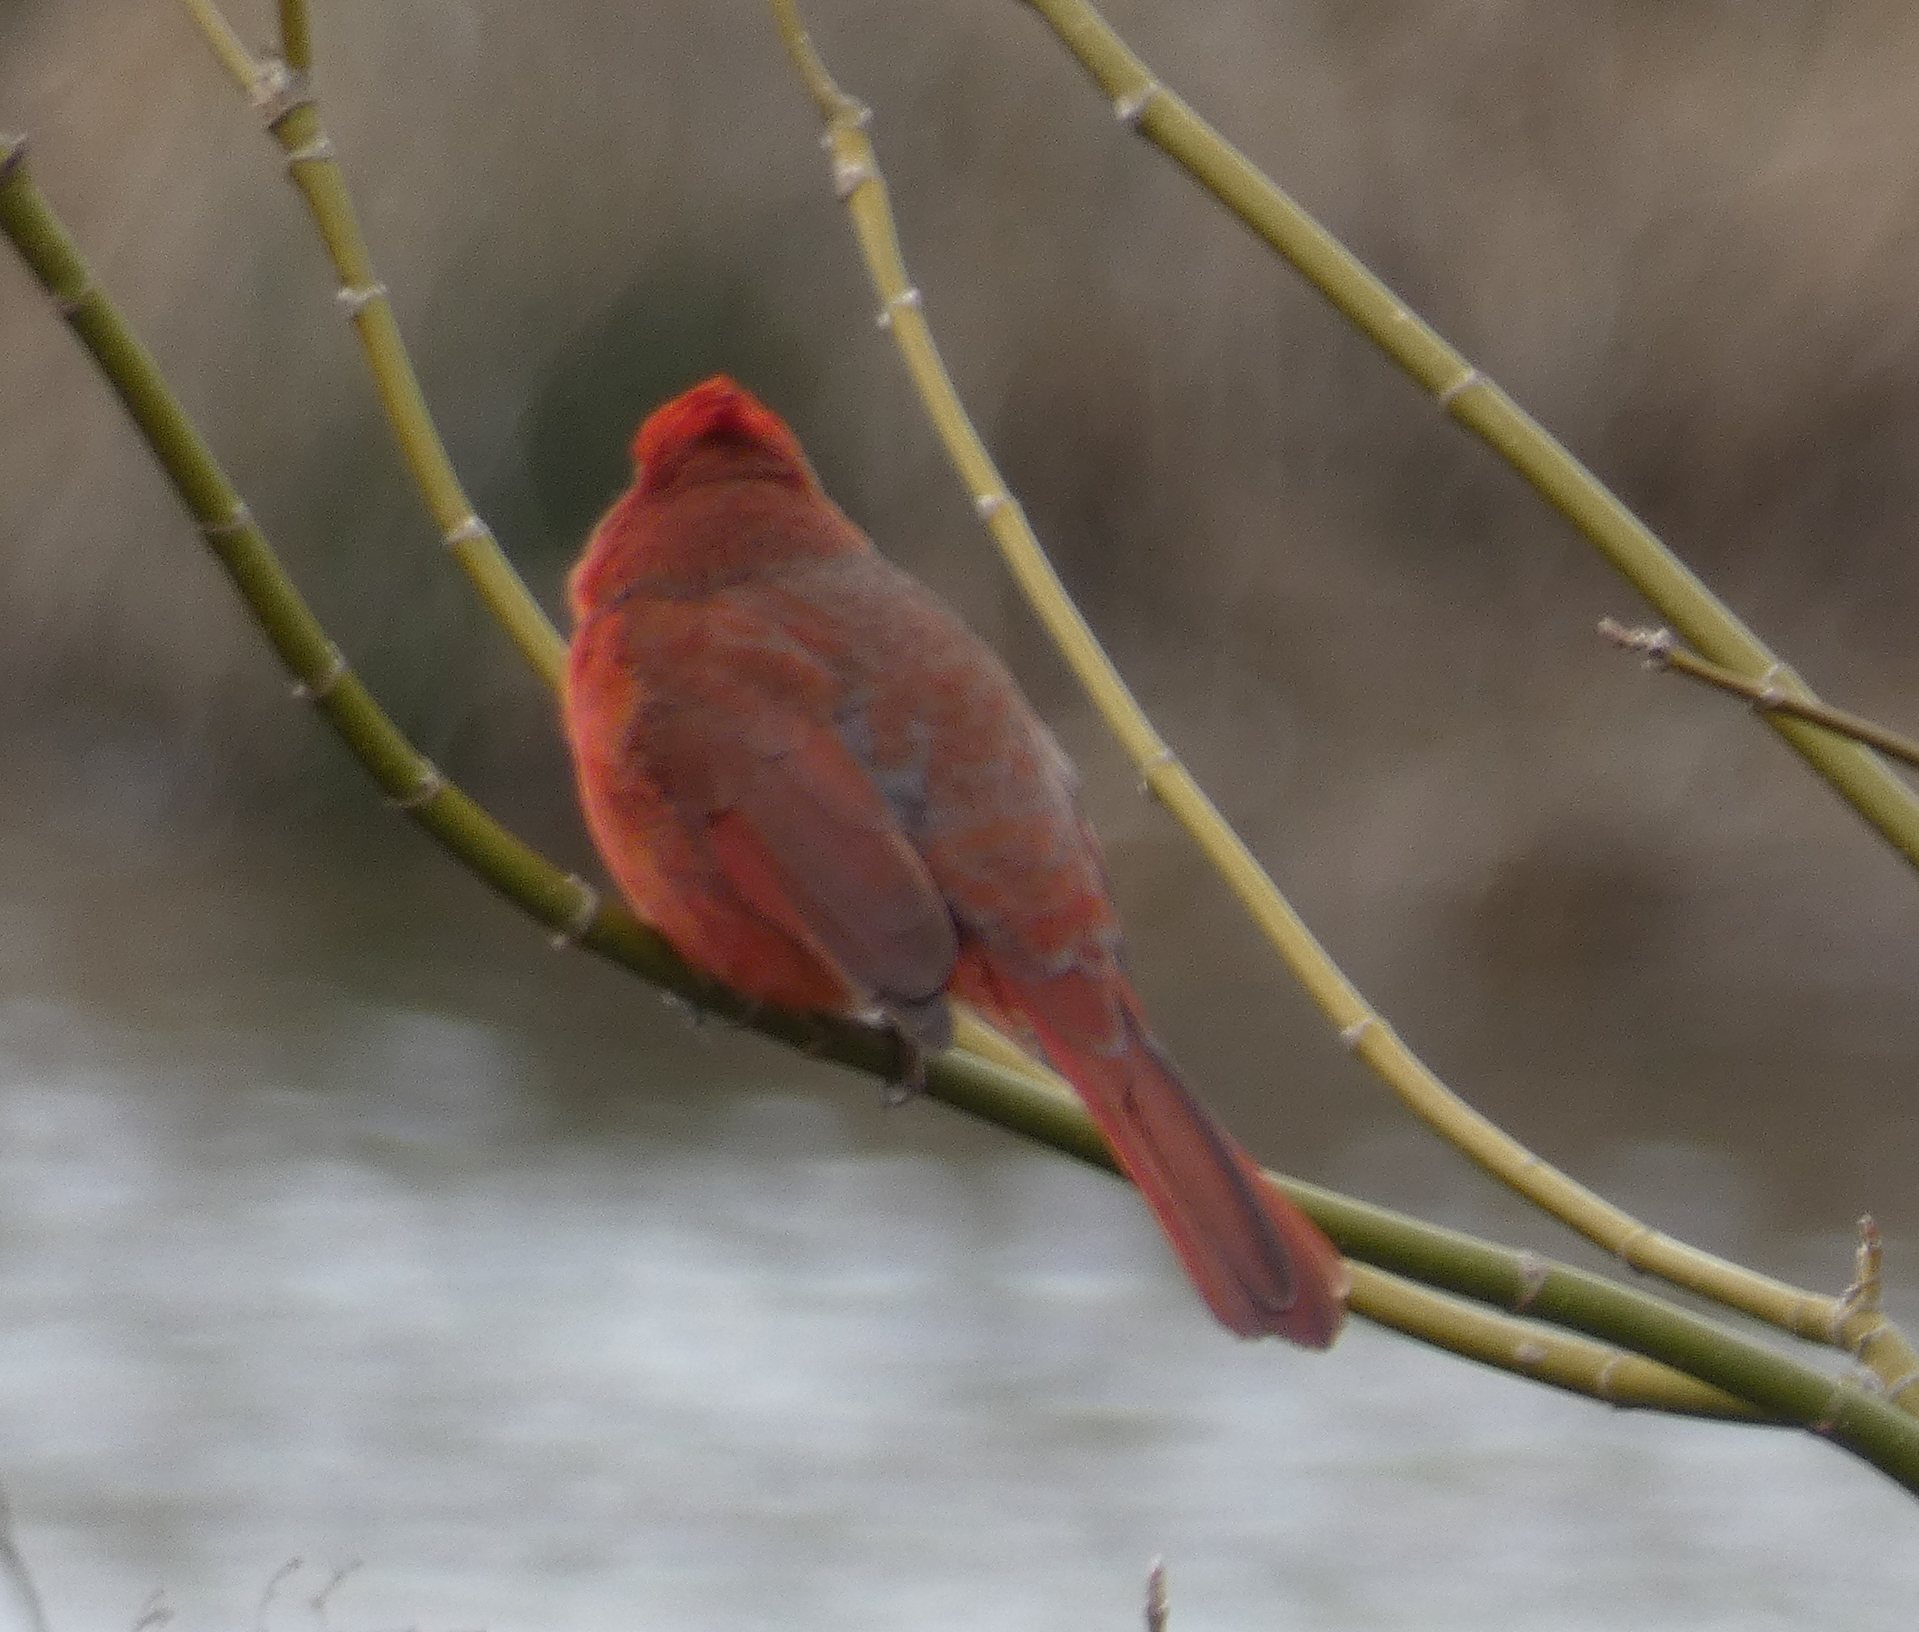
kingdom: Animalia
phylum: Chordata
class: Aves
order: Passeriformes
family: Cardinalidae
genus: Cardinalis
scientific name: Cardinalis cardinalis
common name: Northern cardinal
